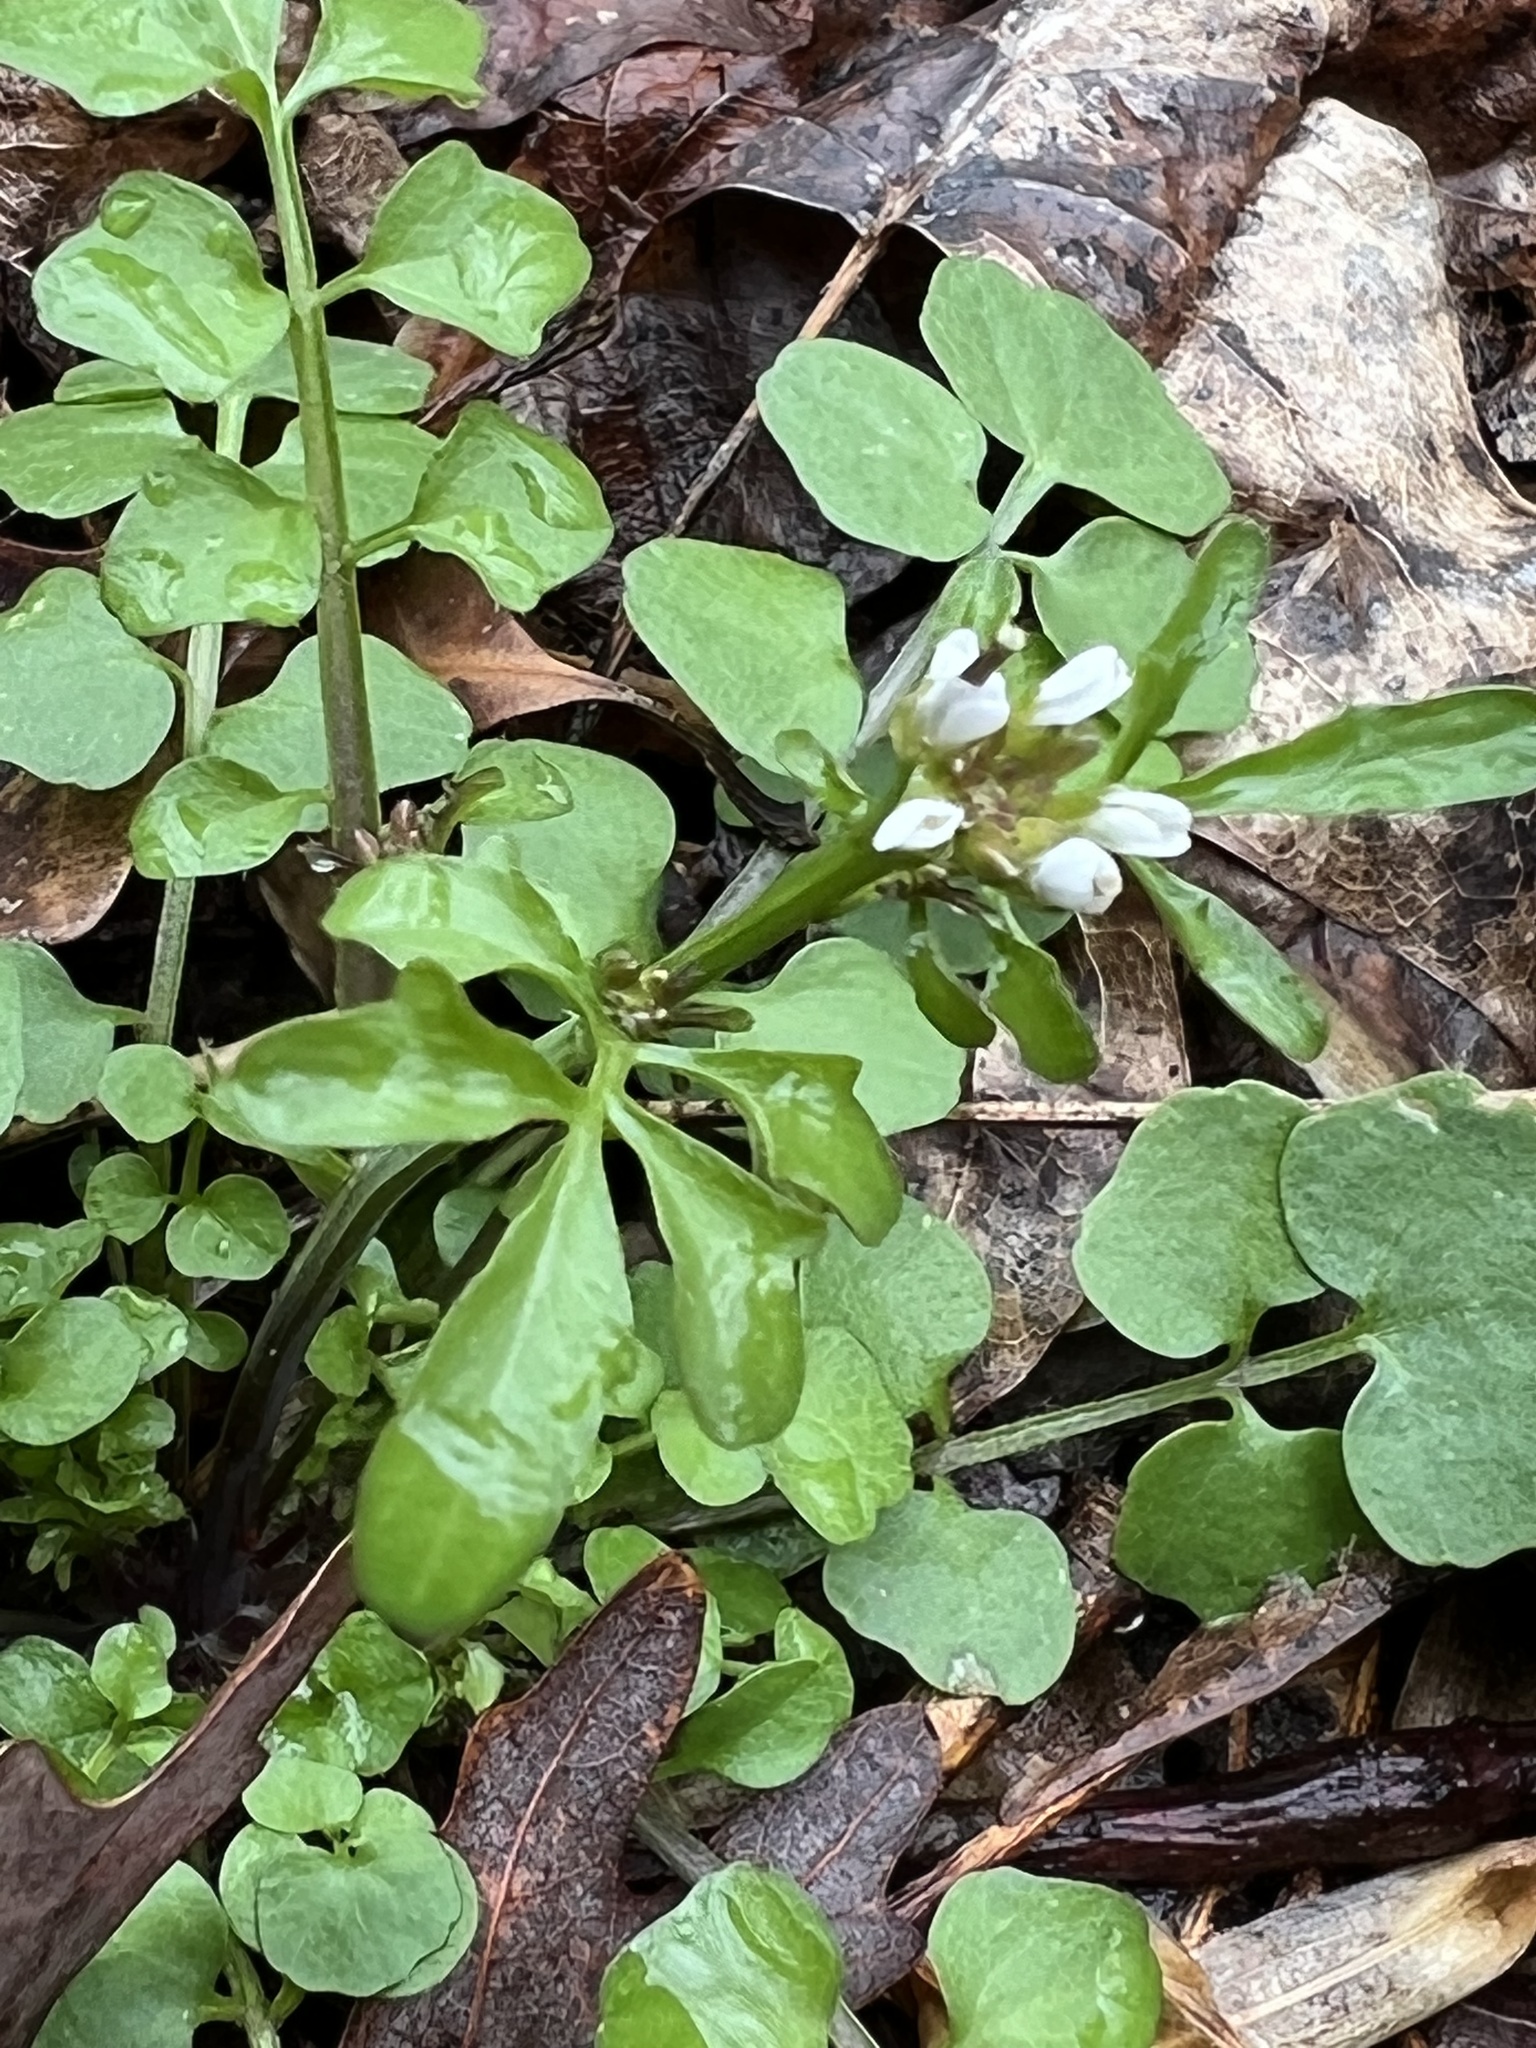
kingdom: Plantae
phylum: Tracheophyta
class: Magnoliopsida
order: Brassicales
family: Brassicaceae
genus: Cardamine
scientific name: Cardamine hirsuta
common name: Hairy bittercress
